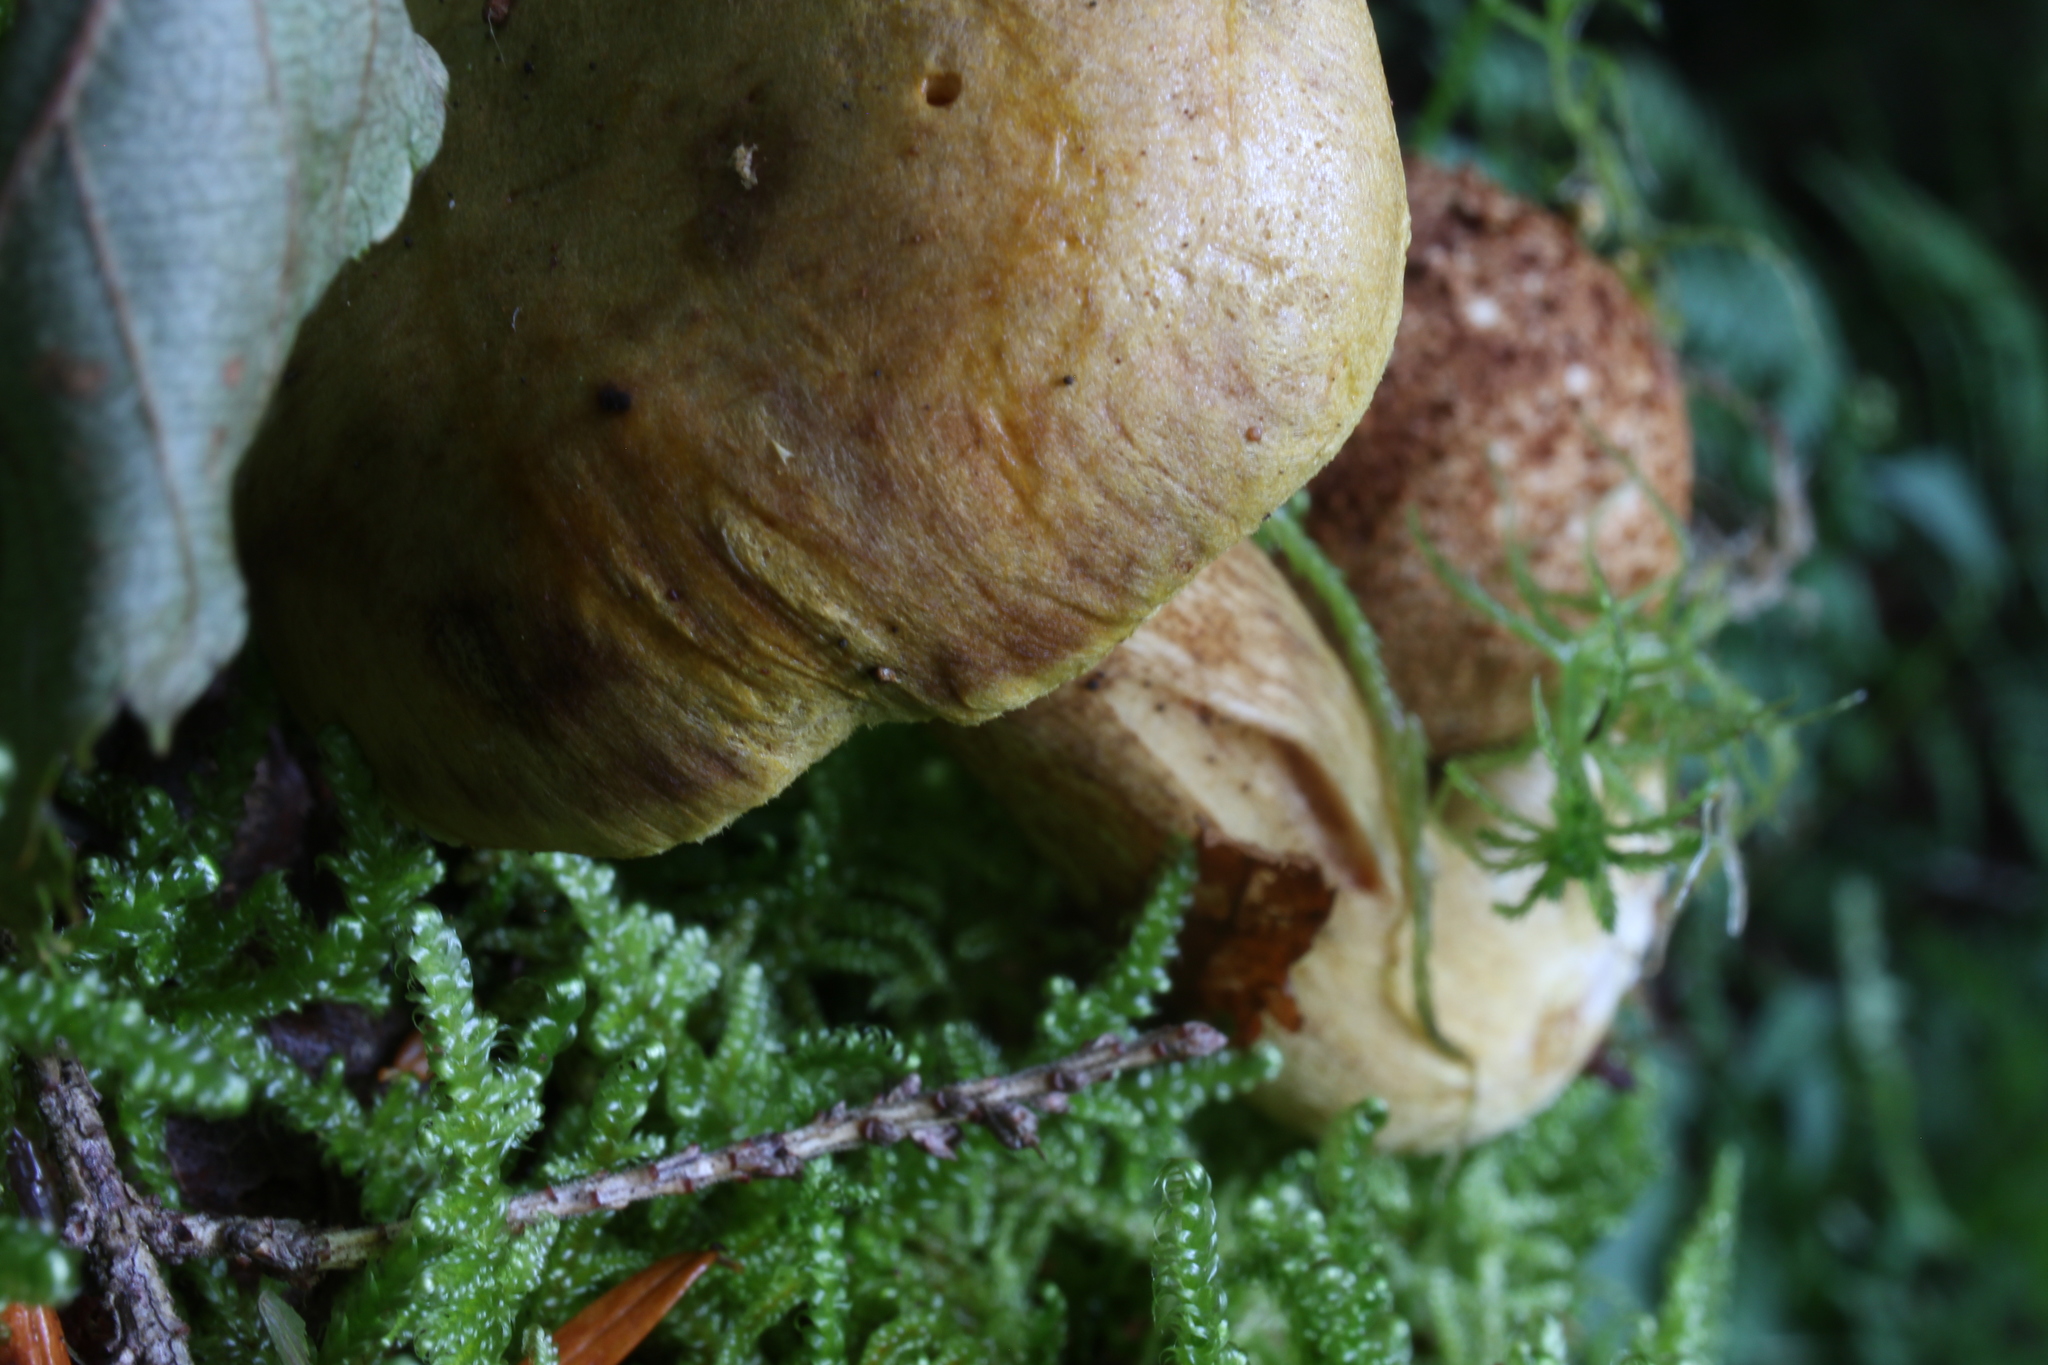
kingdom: Fungi
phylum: Basidiomycota
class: Agaricomycetes
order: Boletales
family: Boletaceae
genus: Pseudoboletus
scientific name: Pseudoboletus parasiticus
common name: Parasitic bolete
